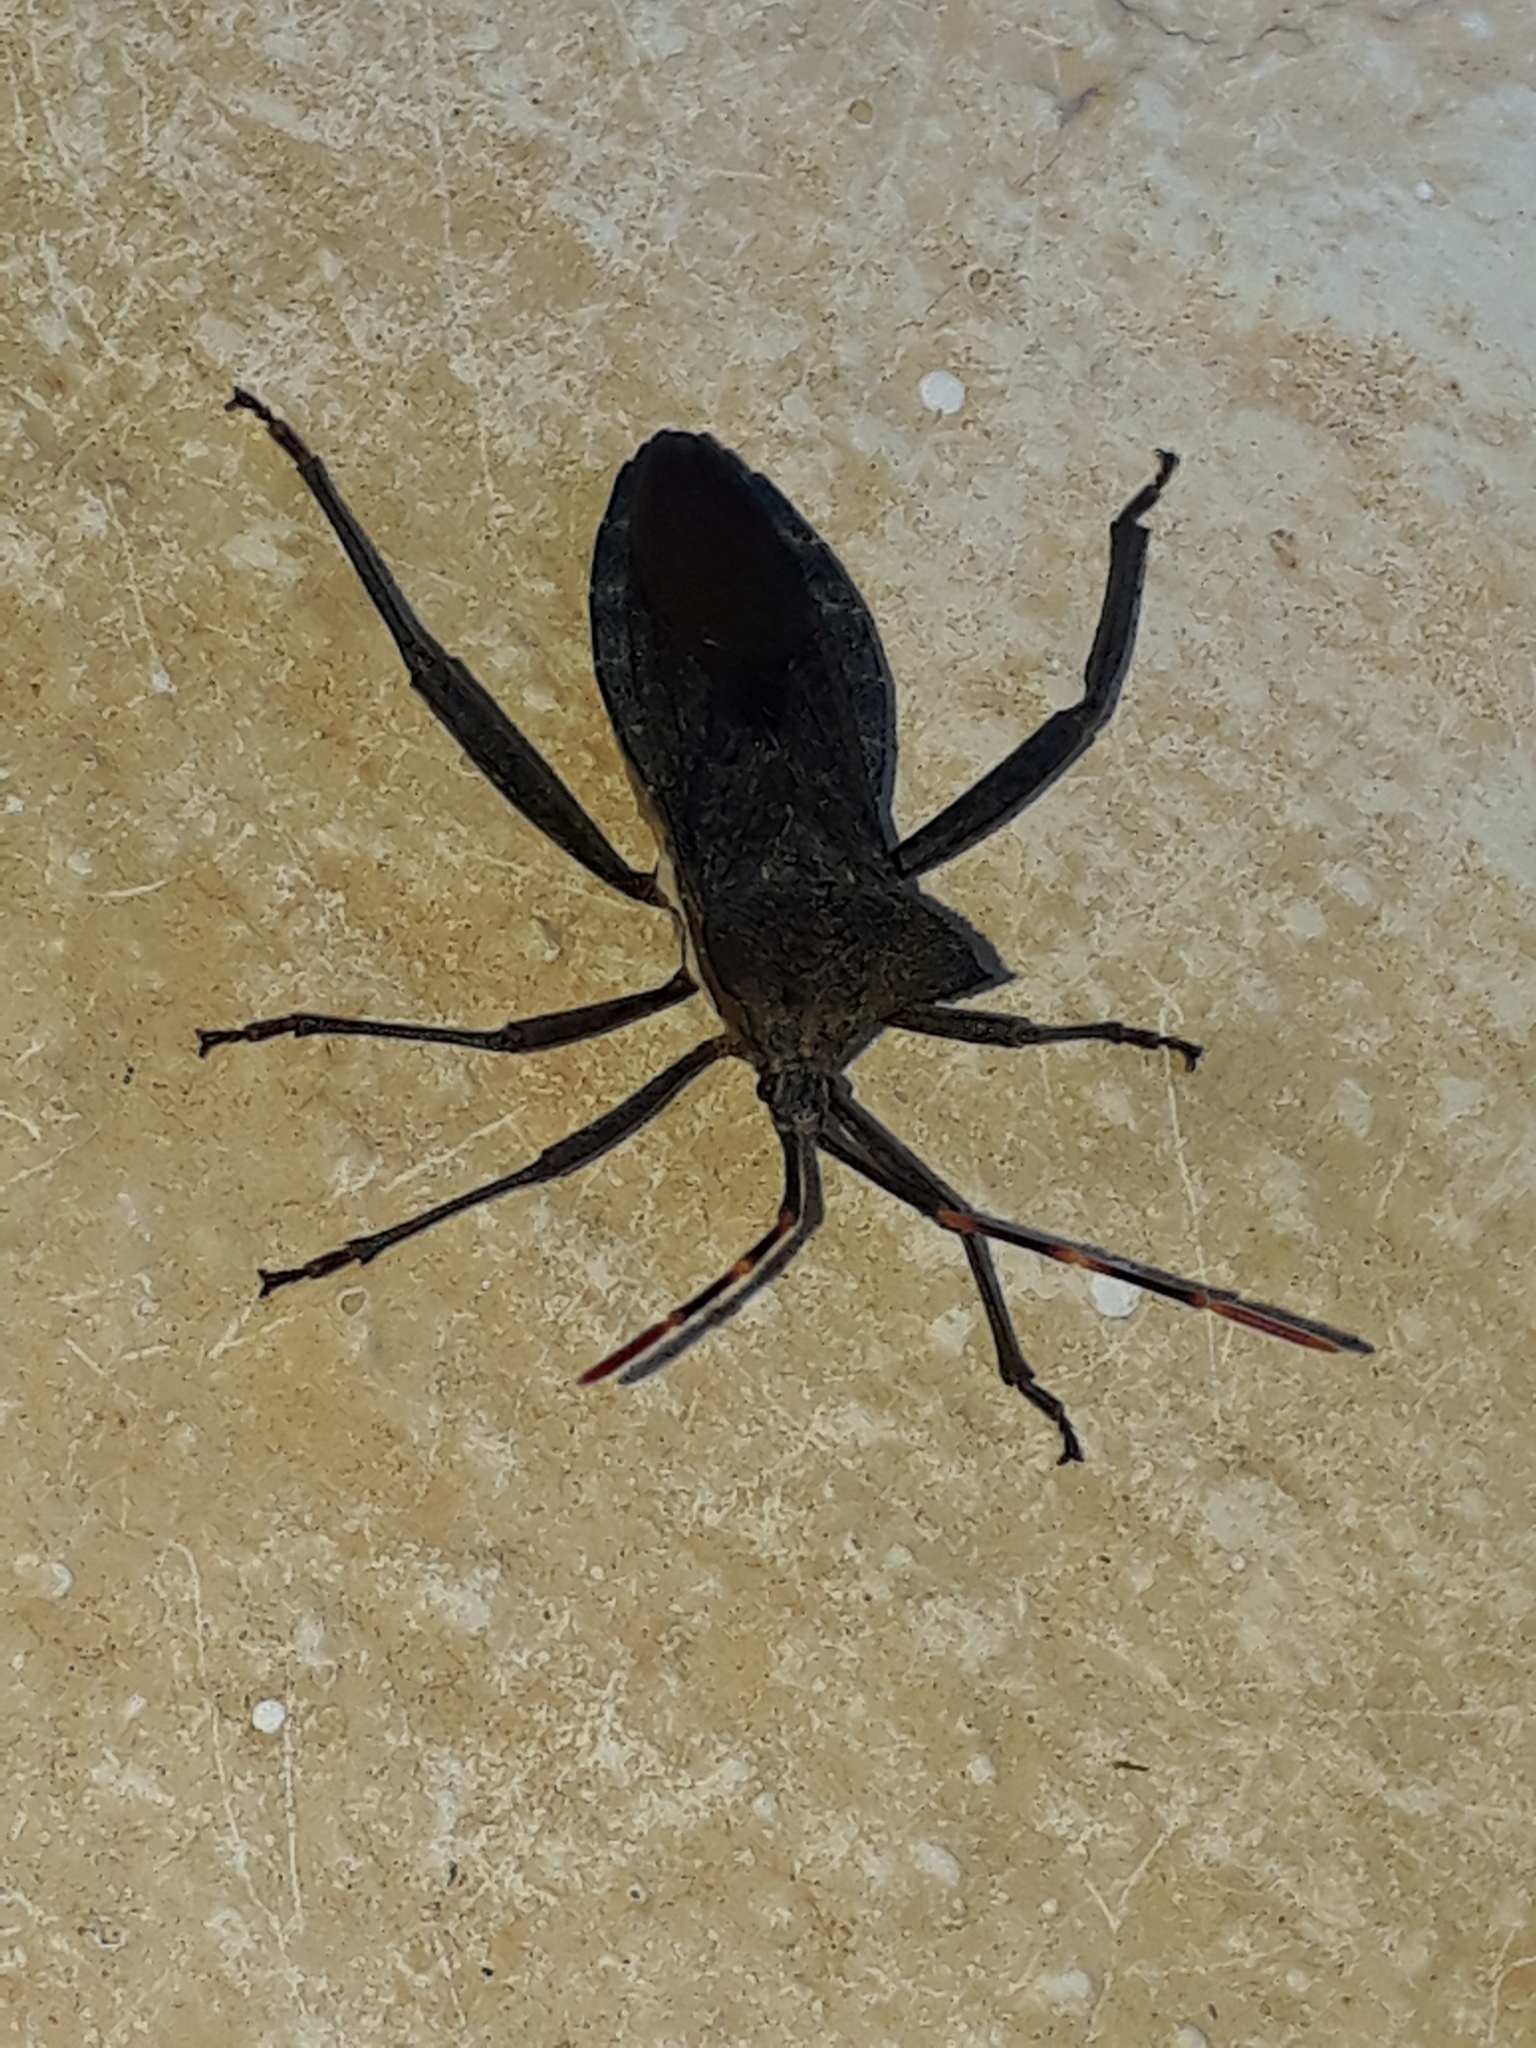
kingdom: Animalia
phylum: Arthropoda
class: Insecta
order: Hemiptera
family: Coreidae
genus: Elasmopoda
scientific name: Elasmopoda valga
